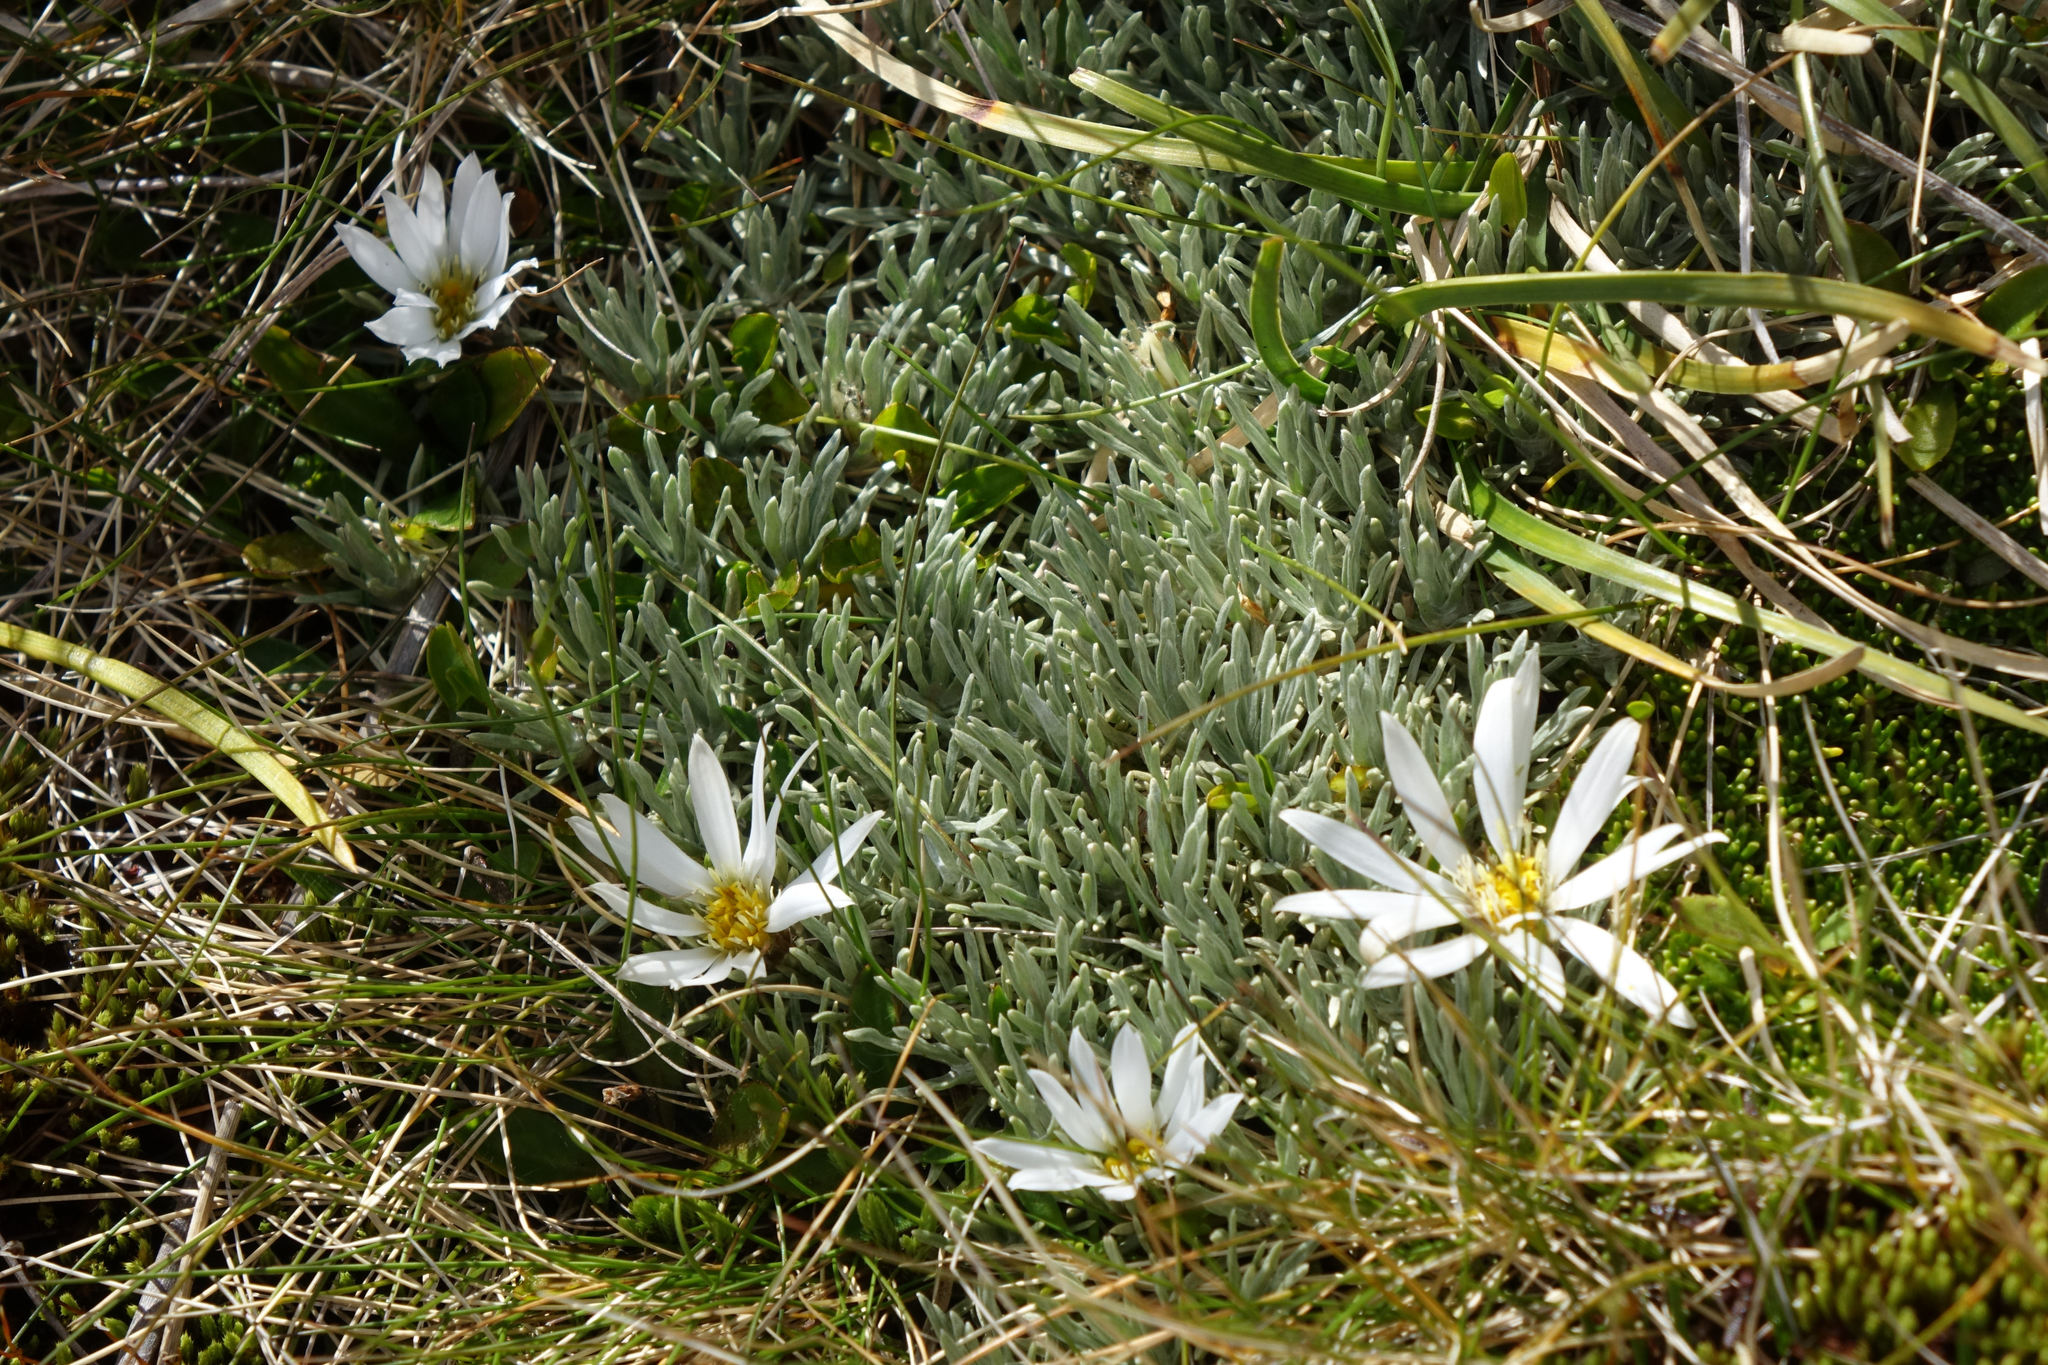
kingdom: Plantae
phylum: Tracheophyta
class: Magnoliopsida
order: Asterales
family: Asteraceae
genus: Celmisia
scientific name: Celmisia sessiliflora
